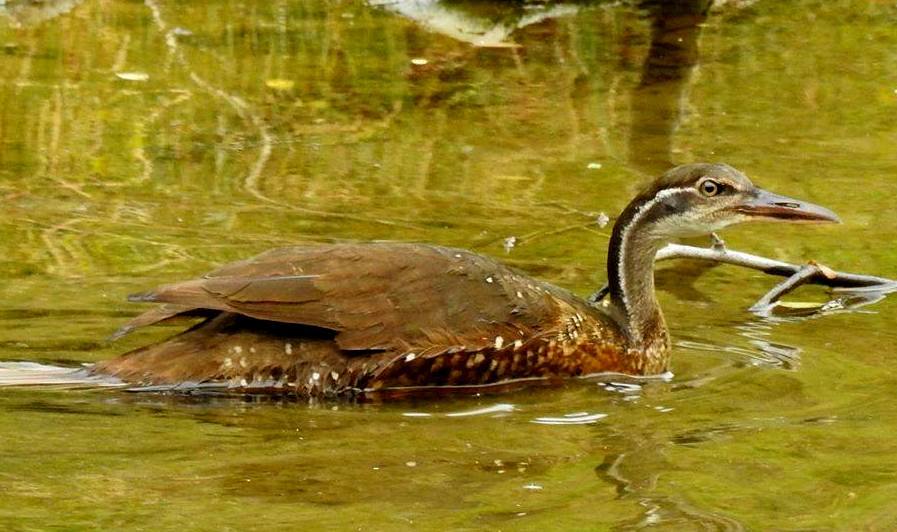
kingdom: Animalia
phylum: Chordata
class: Aves
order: Gruiformes
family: Heliornithidae
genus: Podica
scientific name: Podica senegalensis
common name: African finfoot
